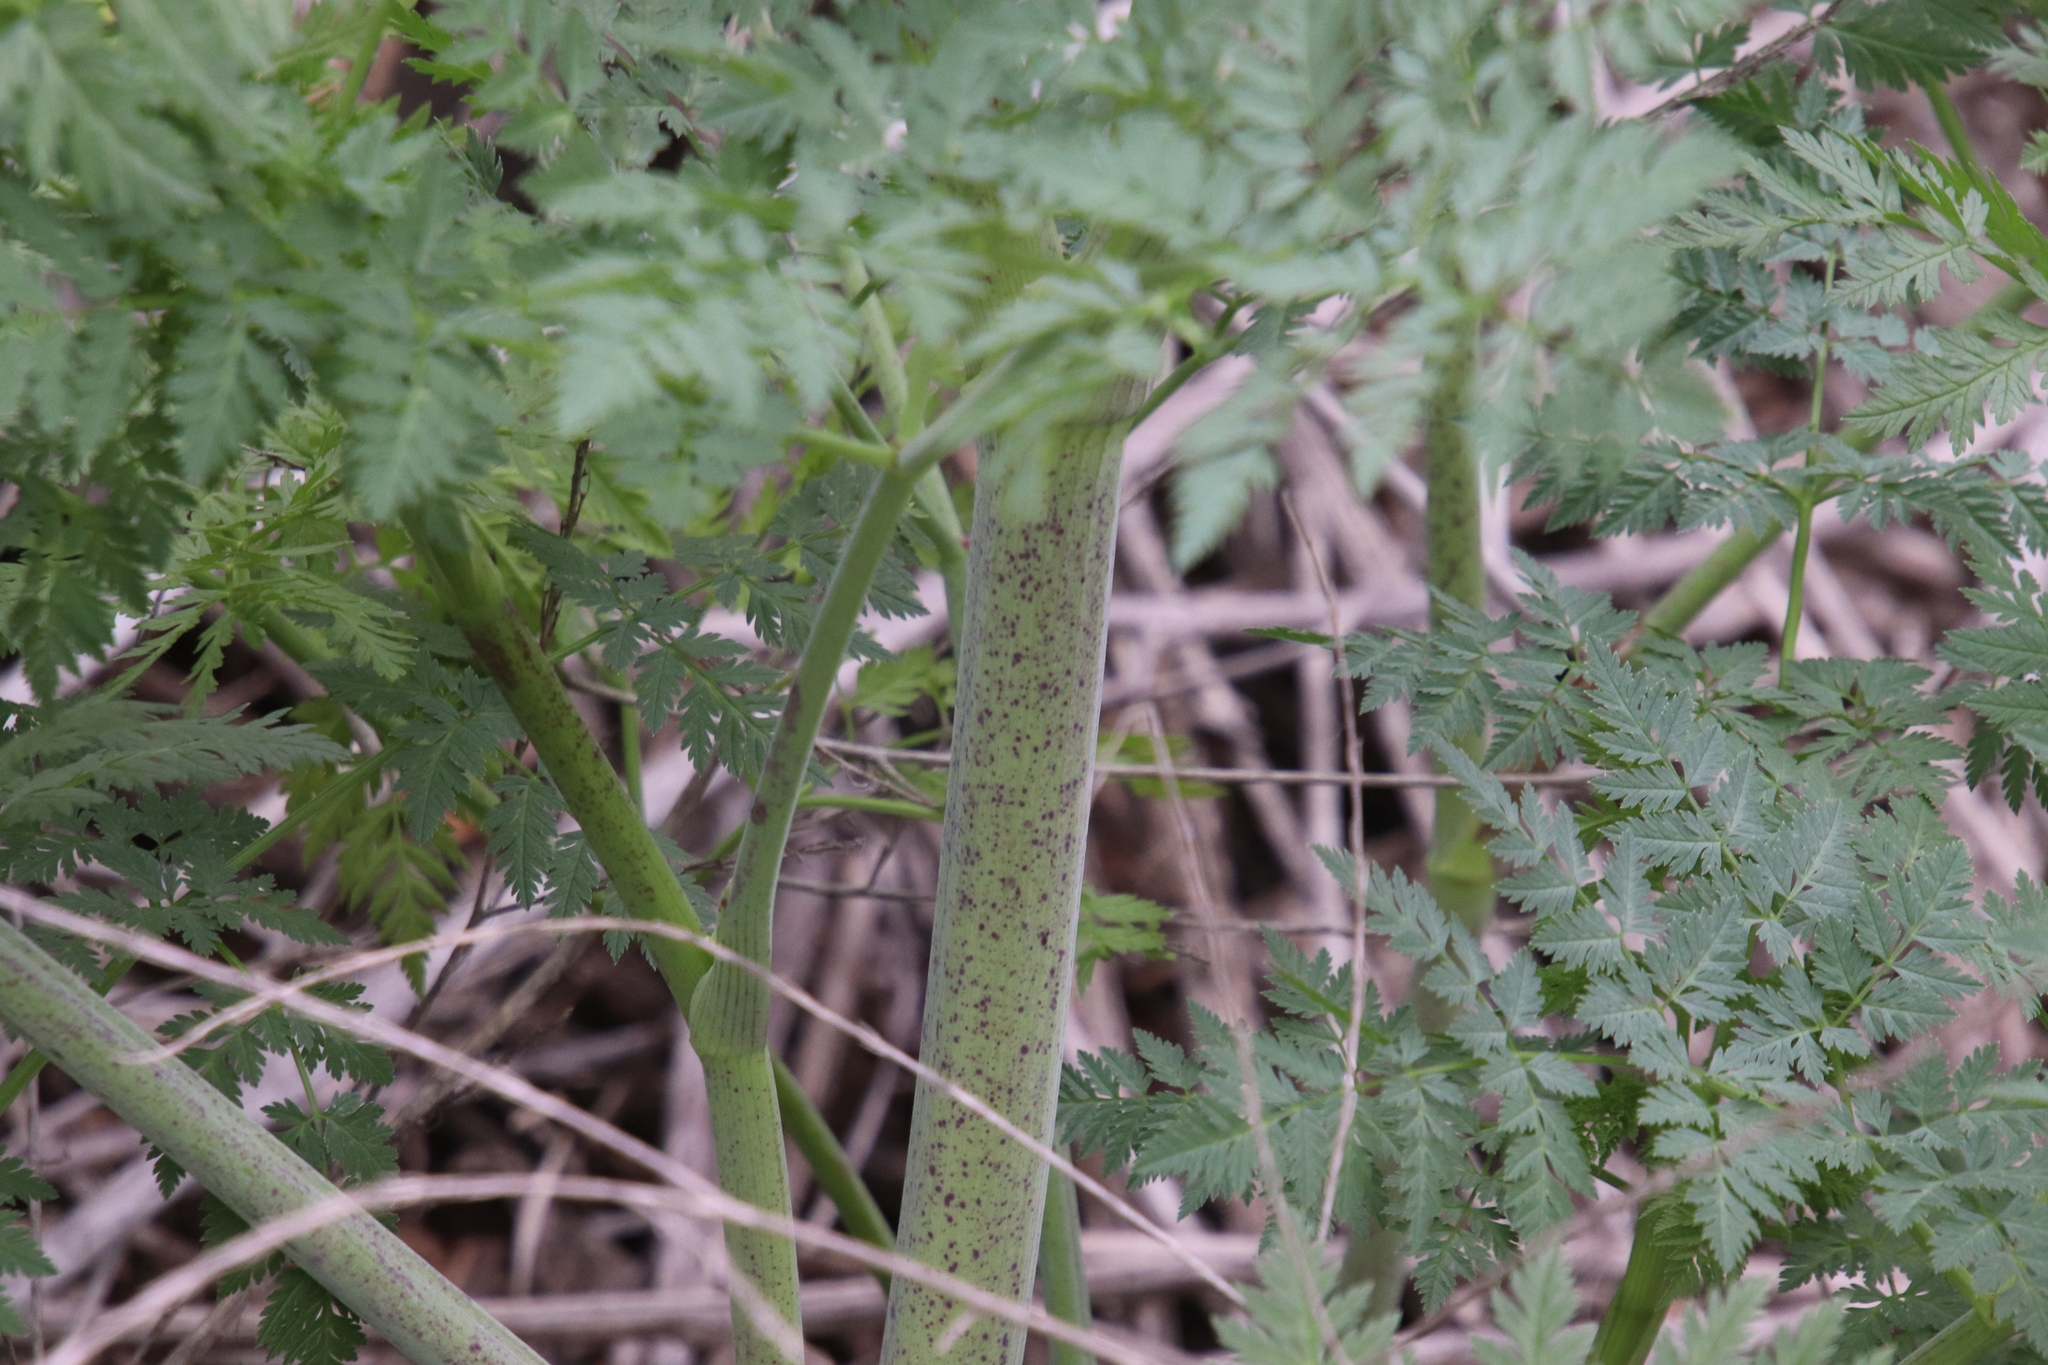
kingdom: Plantae
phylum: Tracheophyta
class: Magnoliopsida
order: Apiales
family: Apiaceae
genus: Conium
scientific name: Conium maculatum
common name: Hemlock
